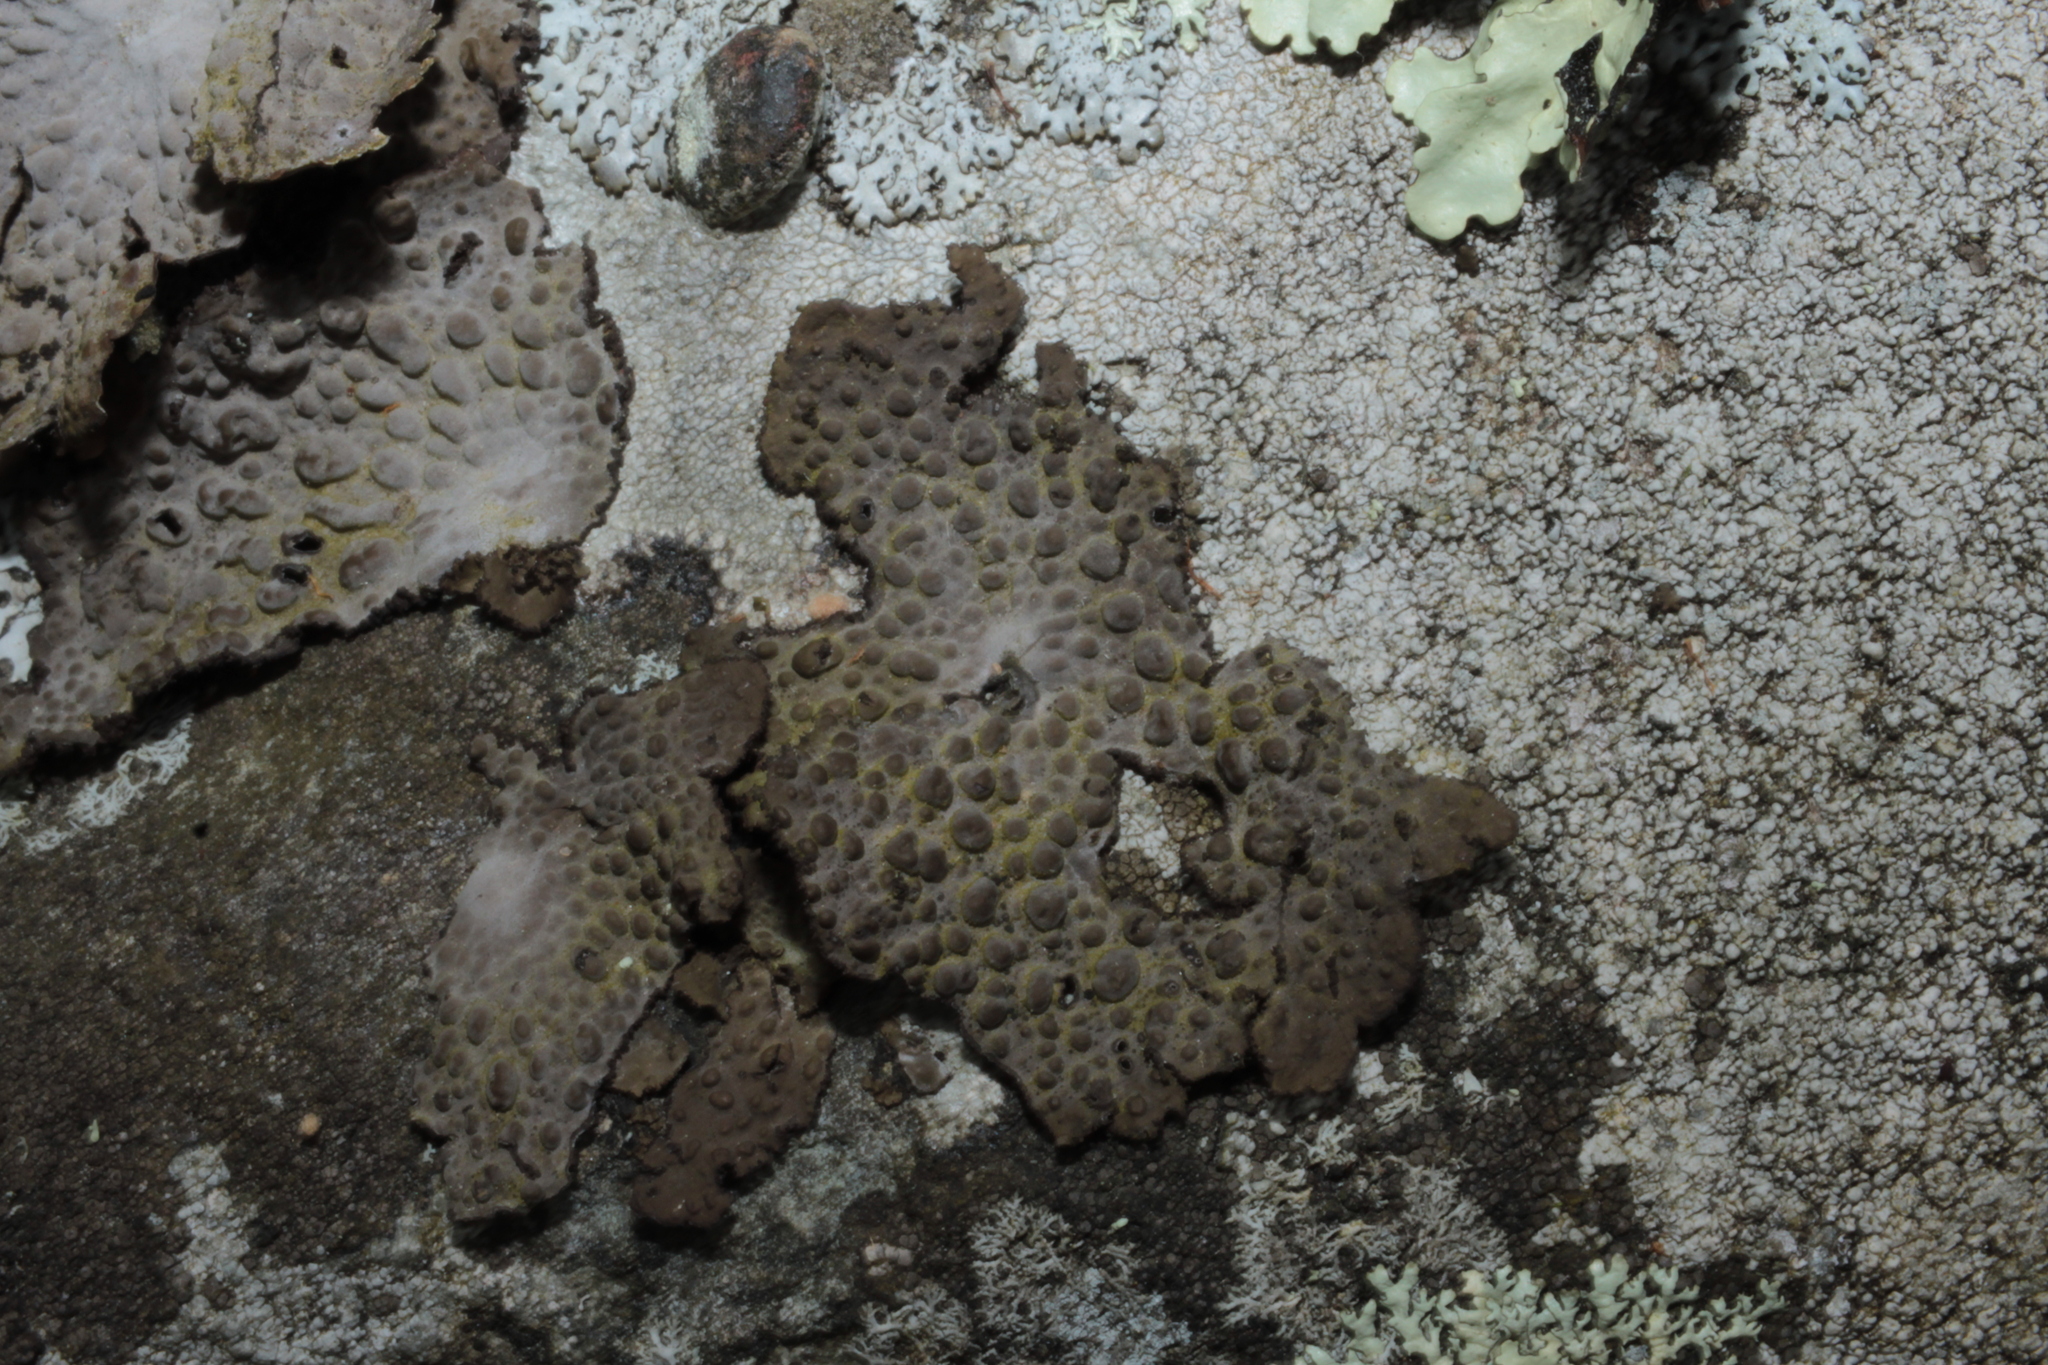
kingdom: Fungi
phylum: Ascomycota
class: Lecanoromycetes
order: Umbilicariales
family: Umbilicariaceae
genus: Lasallia
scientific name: Lasallia papulosa
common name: Common toadskin lichen
